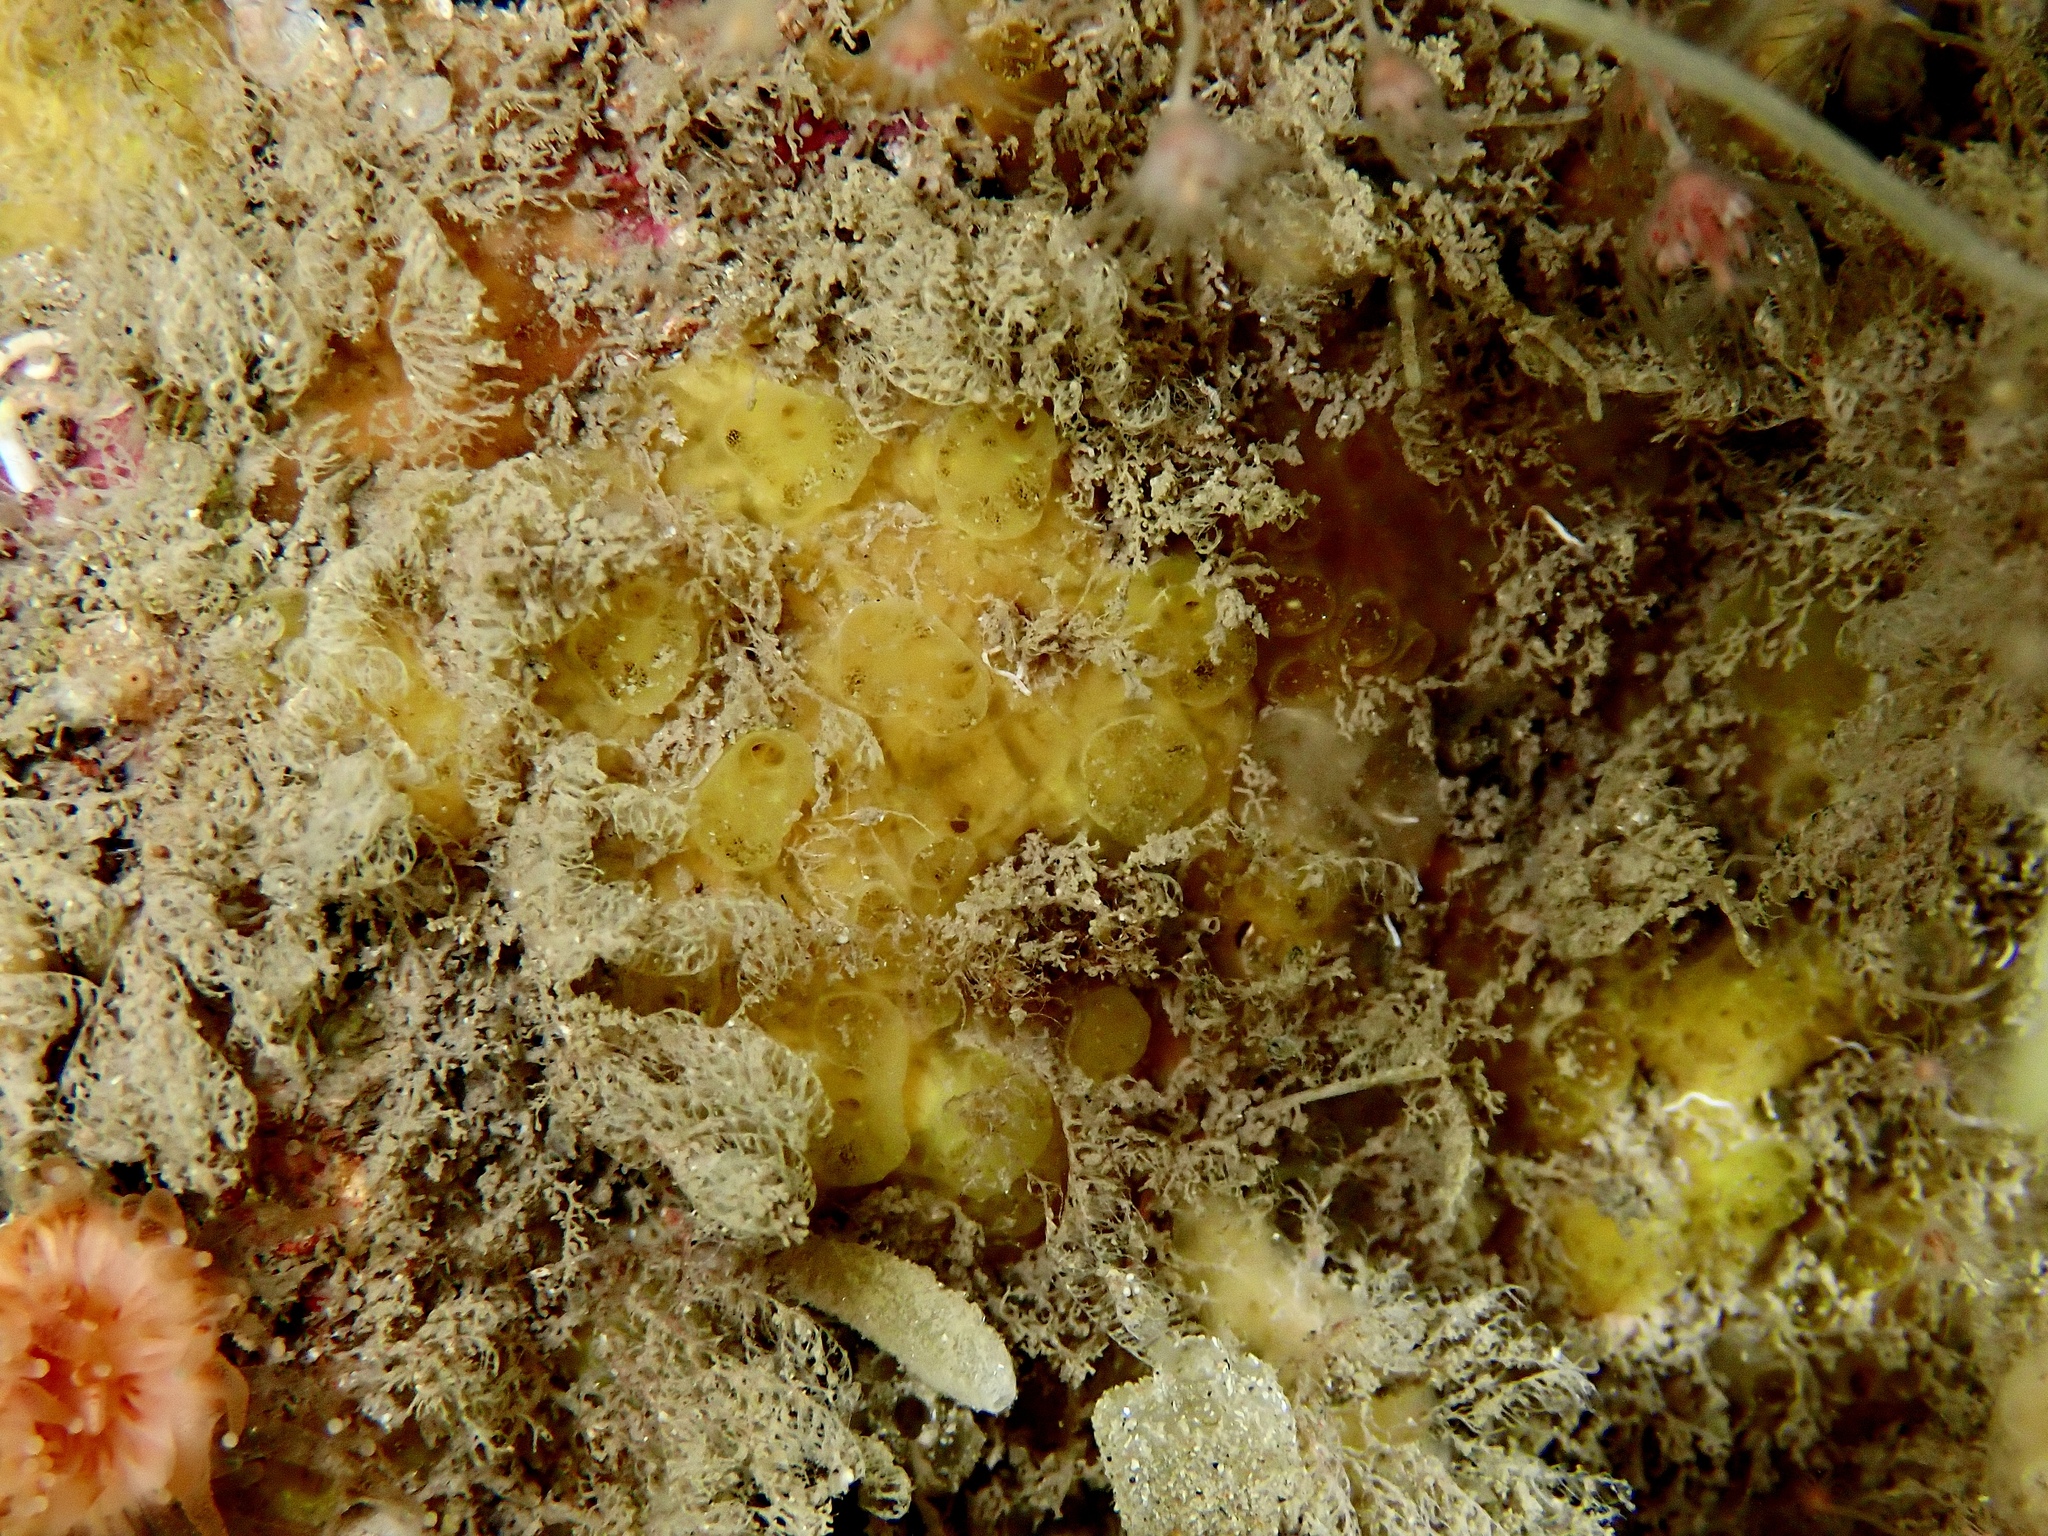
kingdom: Animalia
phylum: Porifera
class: Demospongiae
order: Poecilosclerida
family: Hymedesmiidae
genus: Hymedesmia
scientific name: Hymedesmia rathlinia
